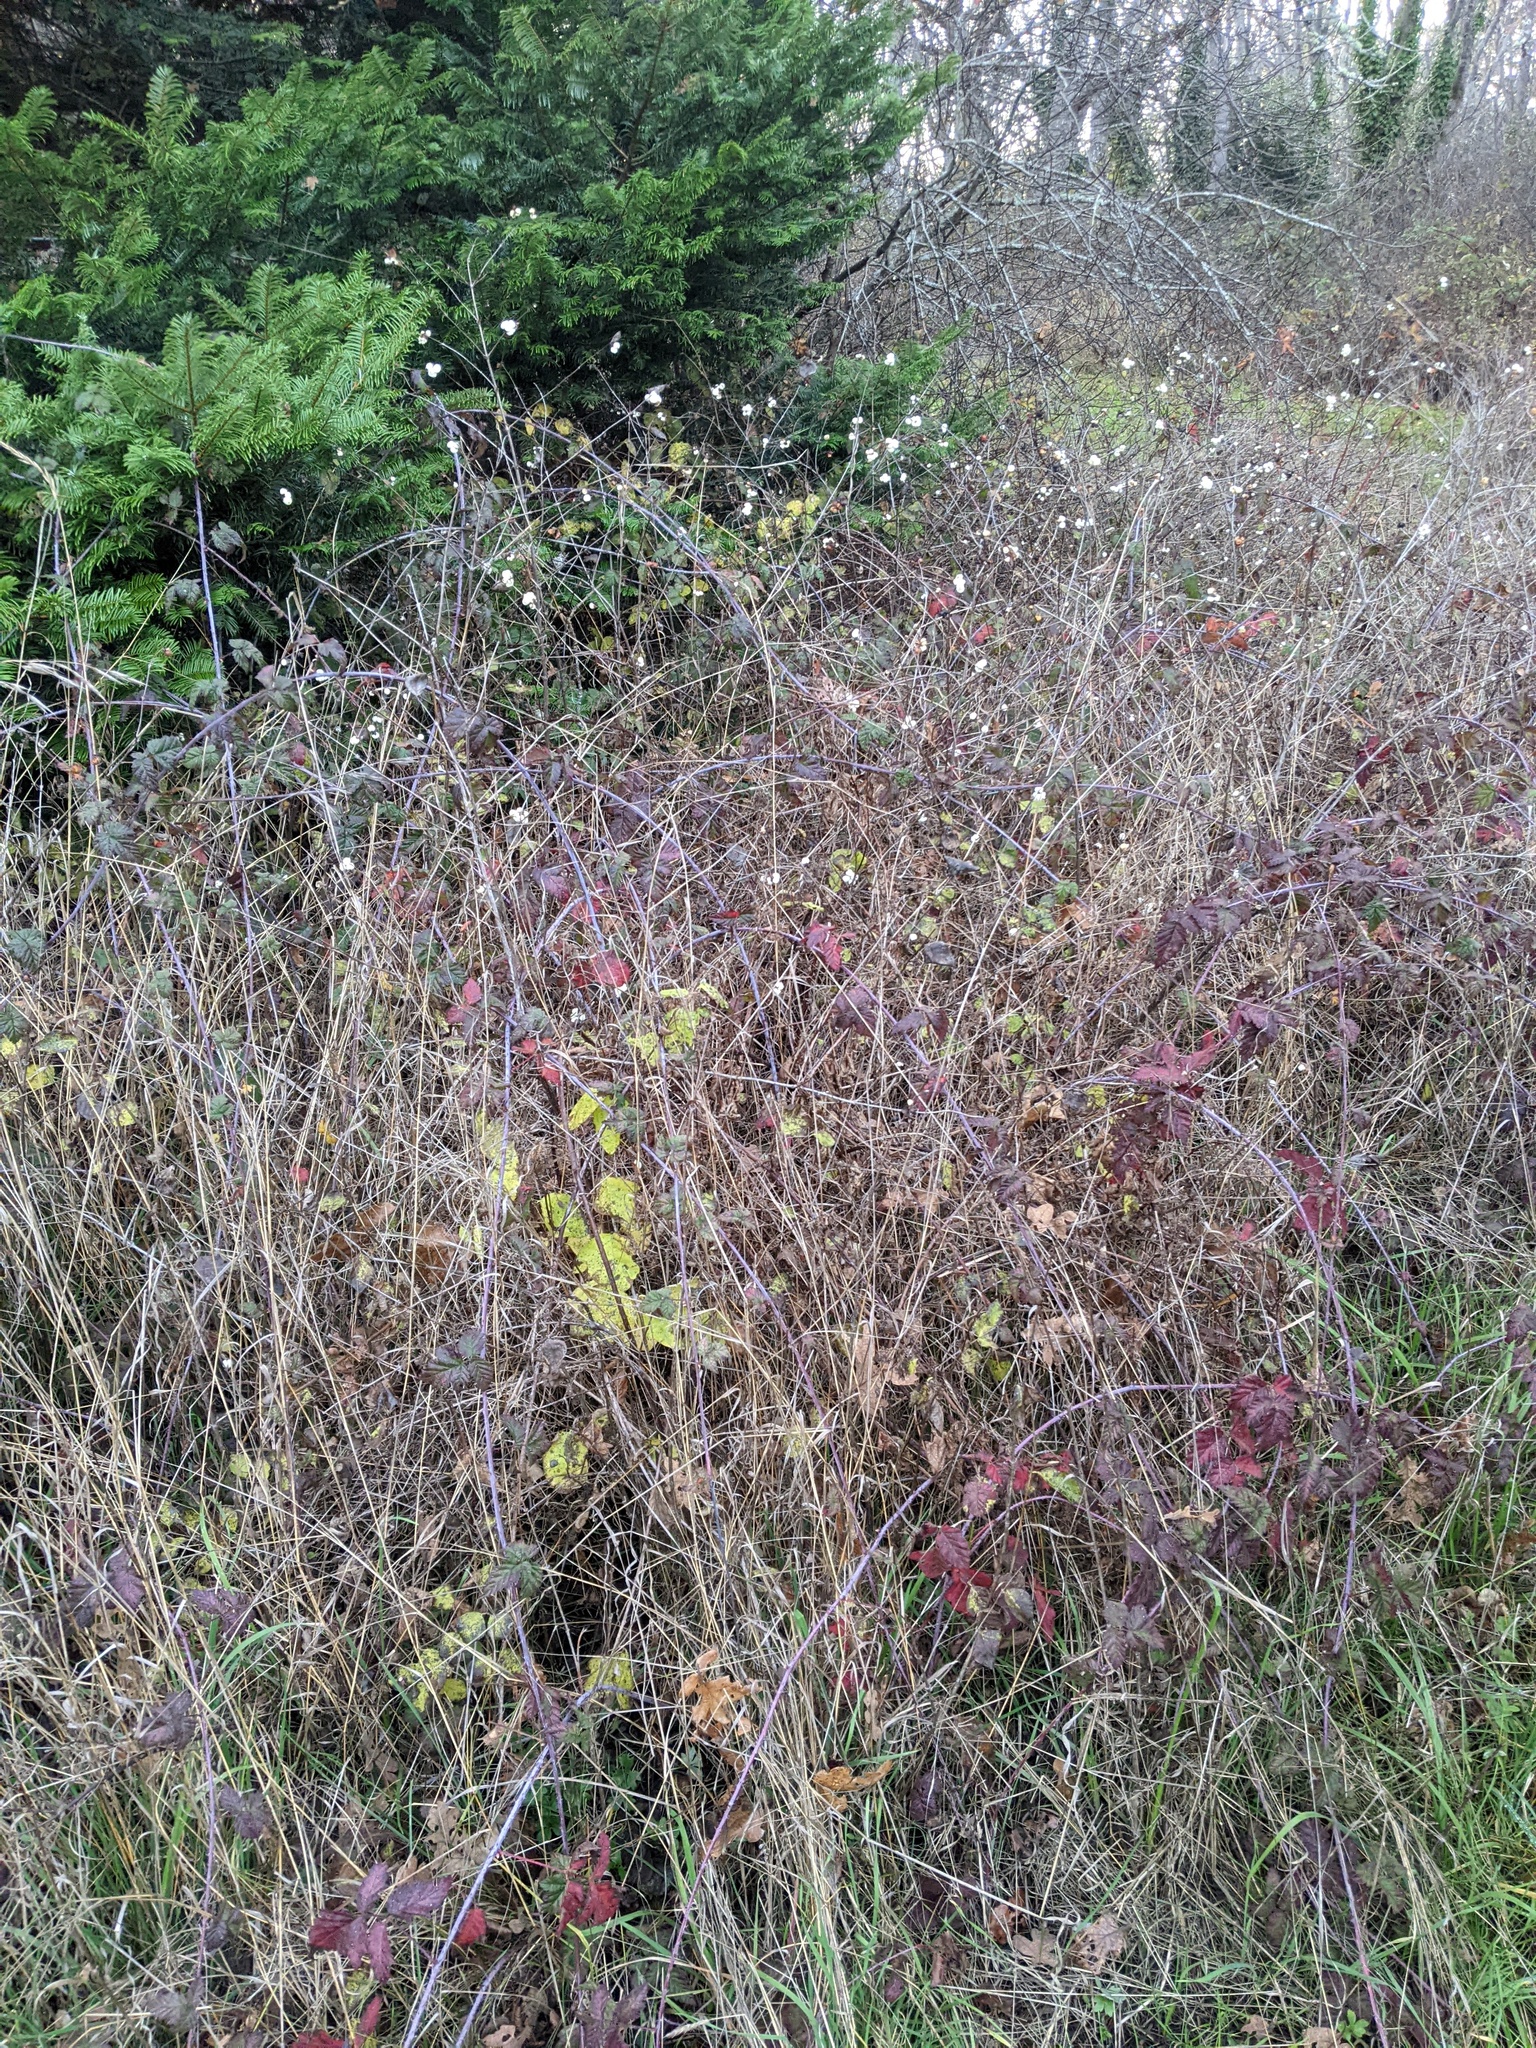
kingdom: Plantae
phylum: Tracheophyta
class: Magnoliopsida
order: Rosales
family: Rosaceae
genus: Rubus
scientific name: Rubus ursinus
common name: Pacific blackberry
